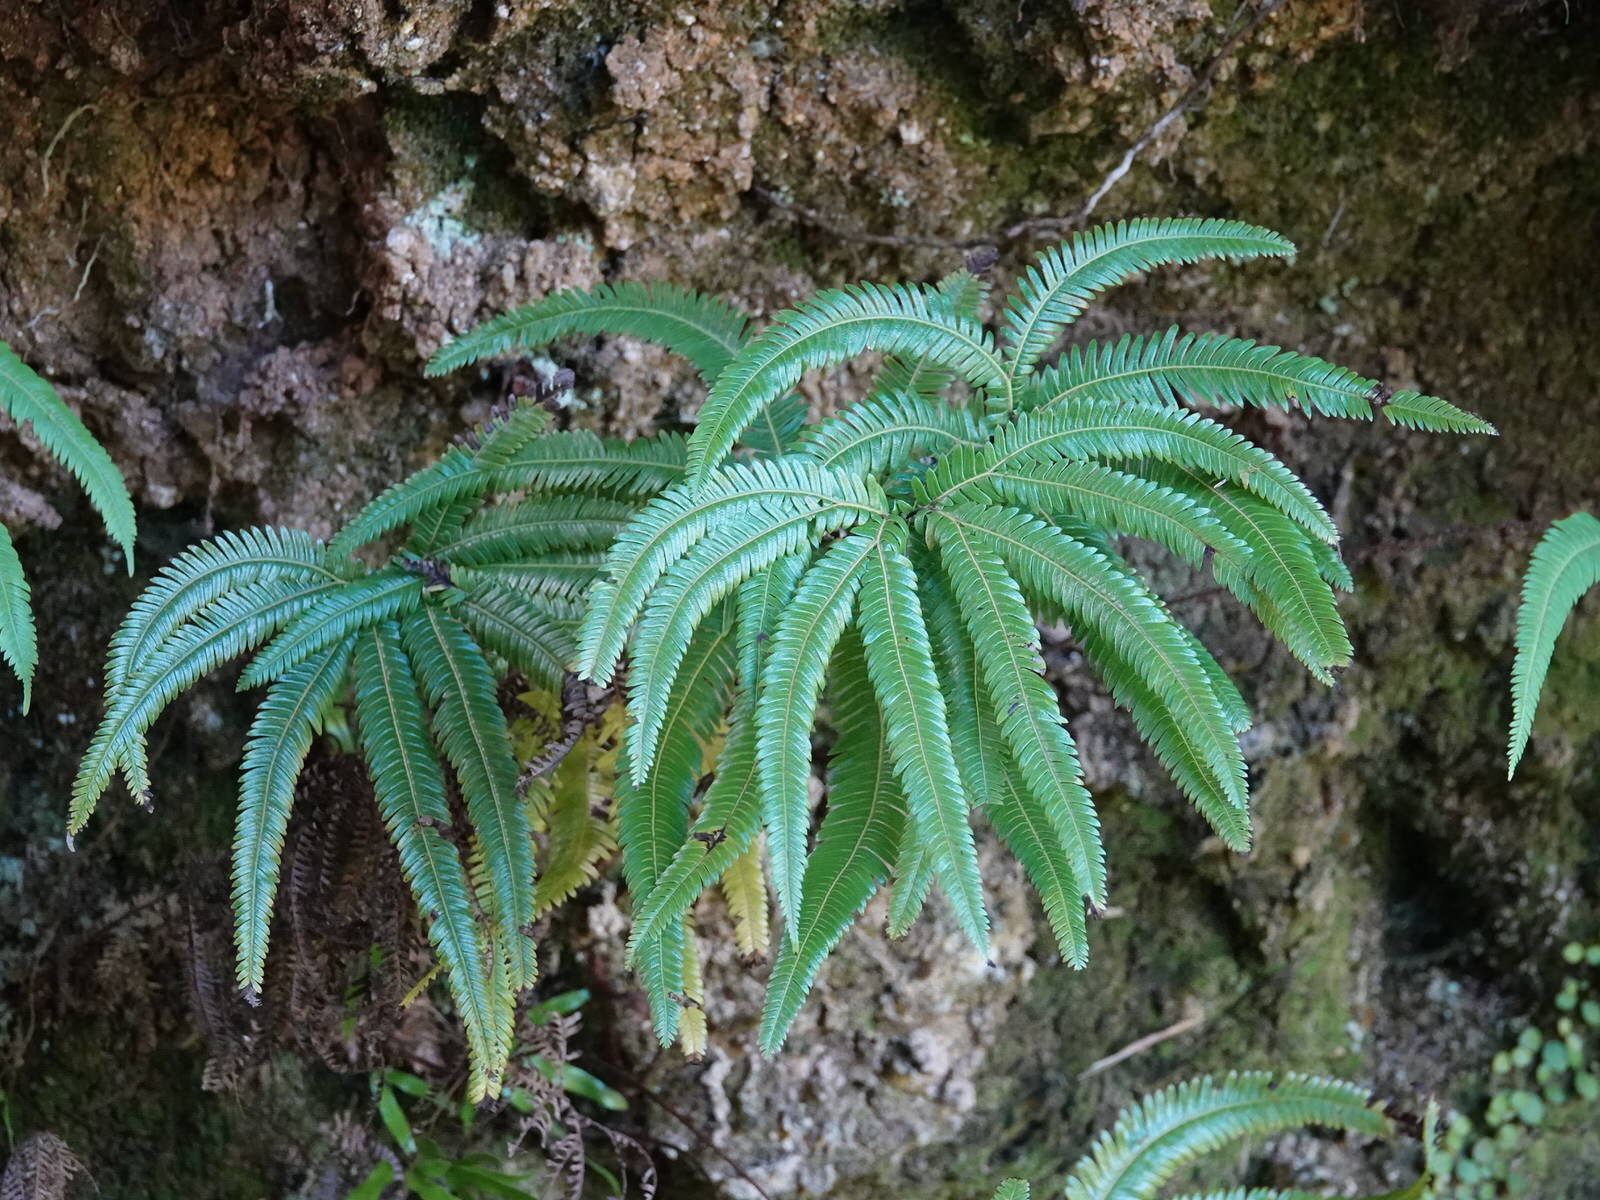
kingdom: Plantae
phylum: Tracheophyta
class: Polypodiopsida
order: Gleicheniales
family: Gleicheniaceae
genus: Sticherus
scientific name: Sticherus cunninghamii
